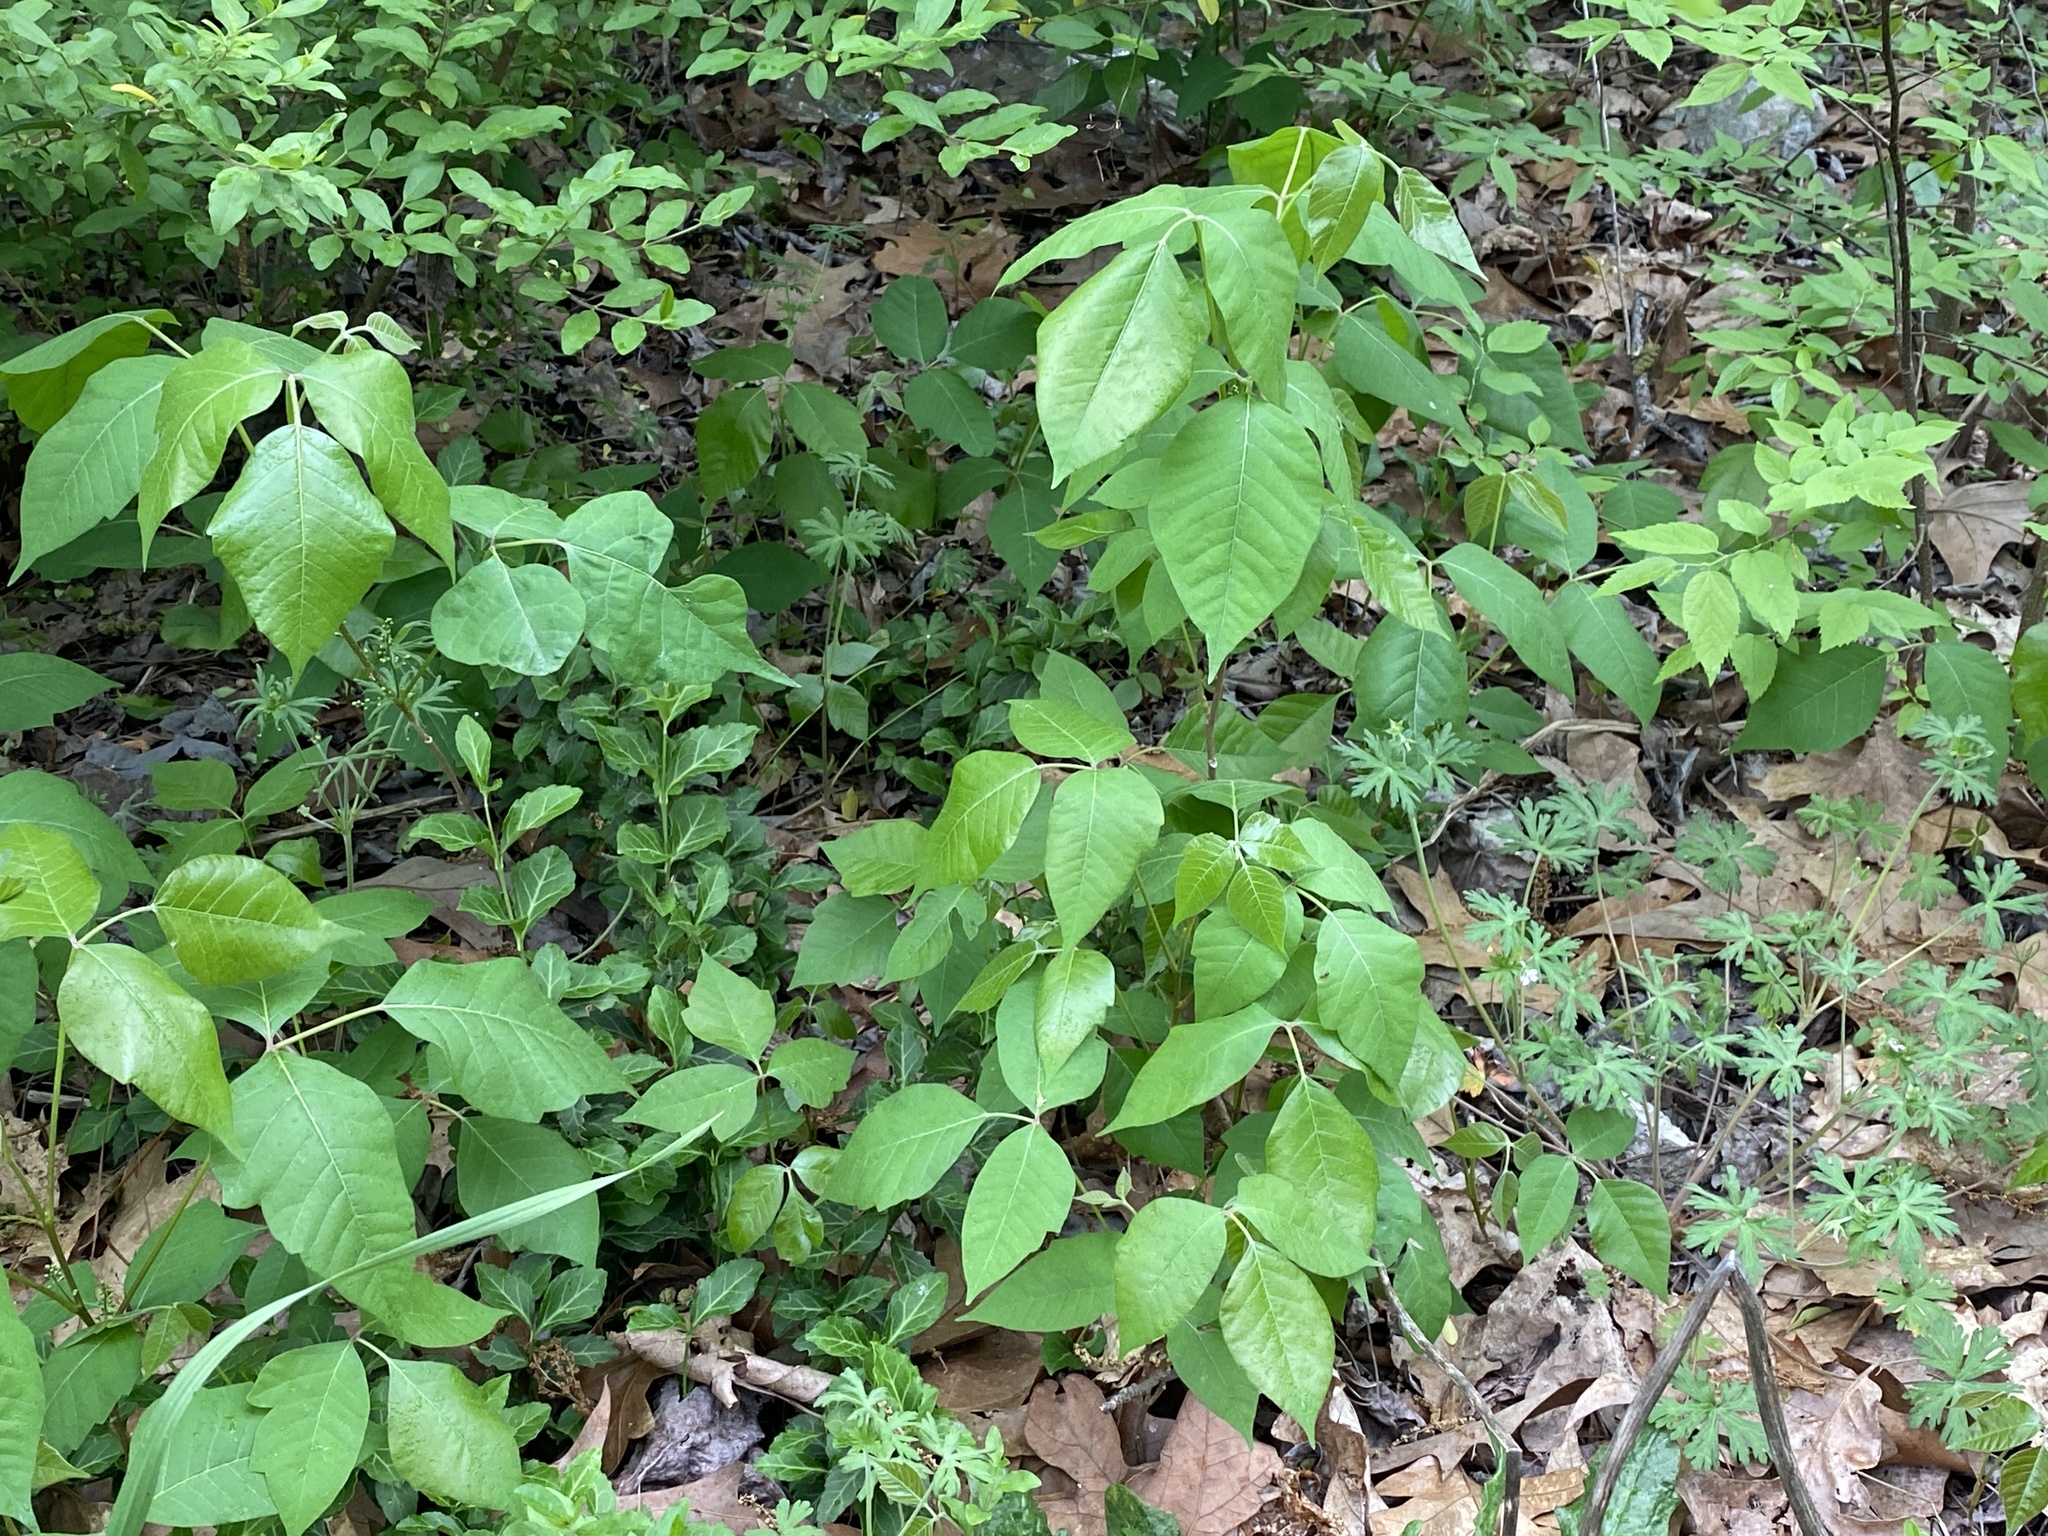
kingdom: Plantae
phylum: Tracheophyta
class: Magnoliopsida
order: Sapindales
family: Anacardiaceae
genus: Toxicodendron
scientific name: Toxicodendron radicans
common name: Poison ivy
